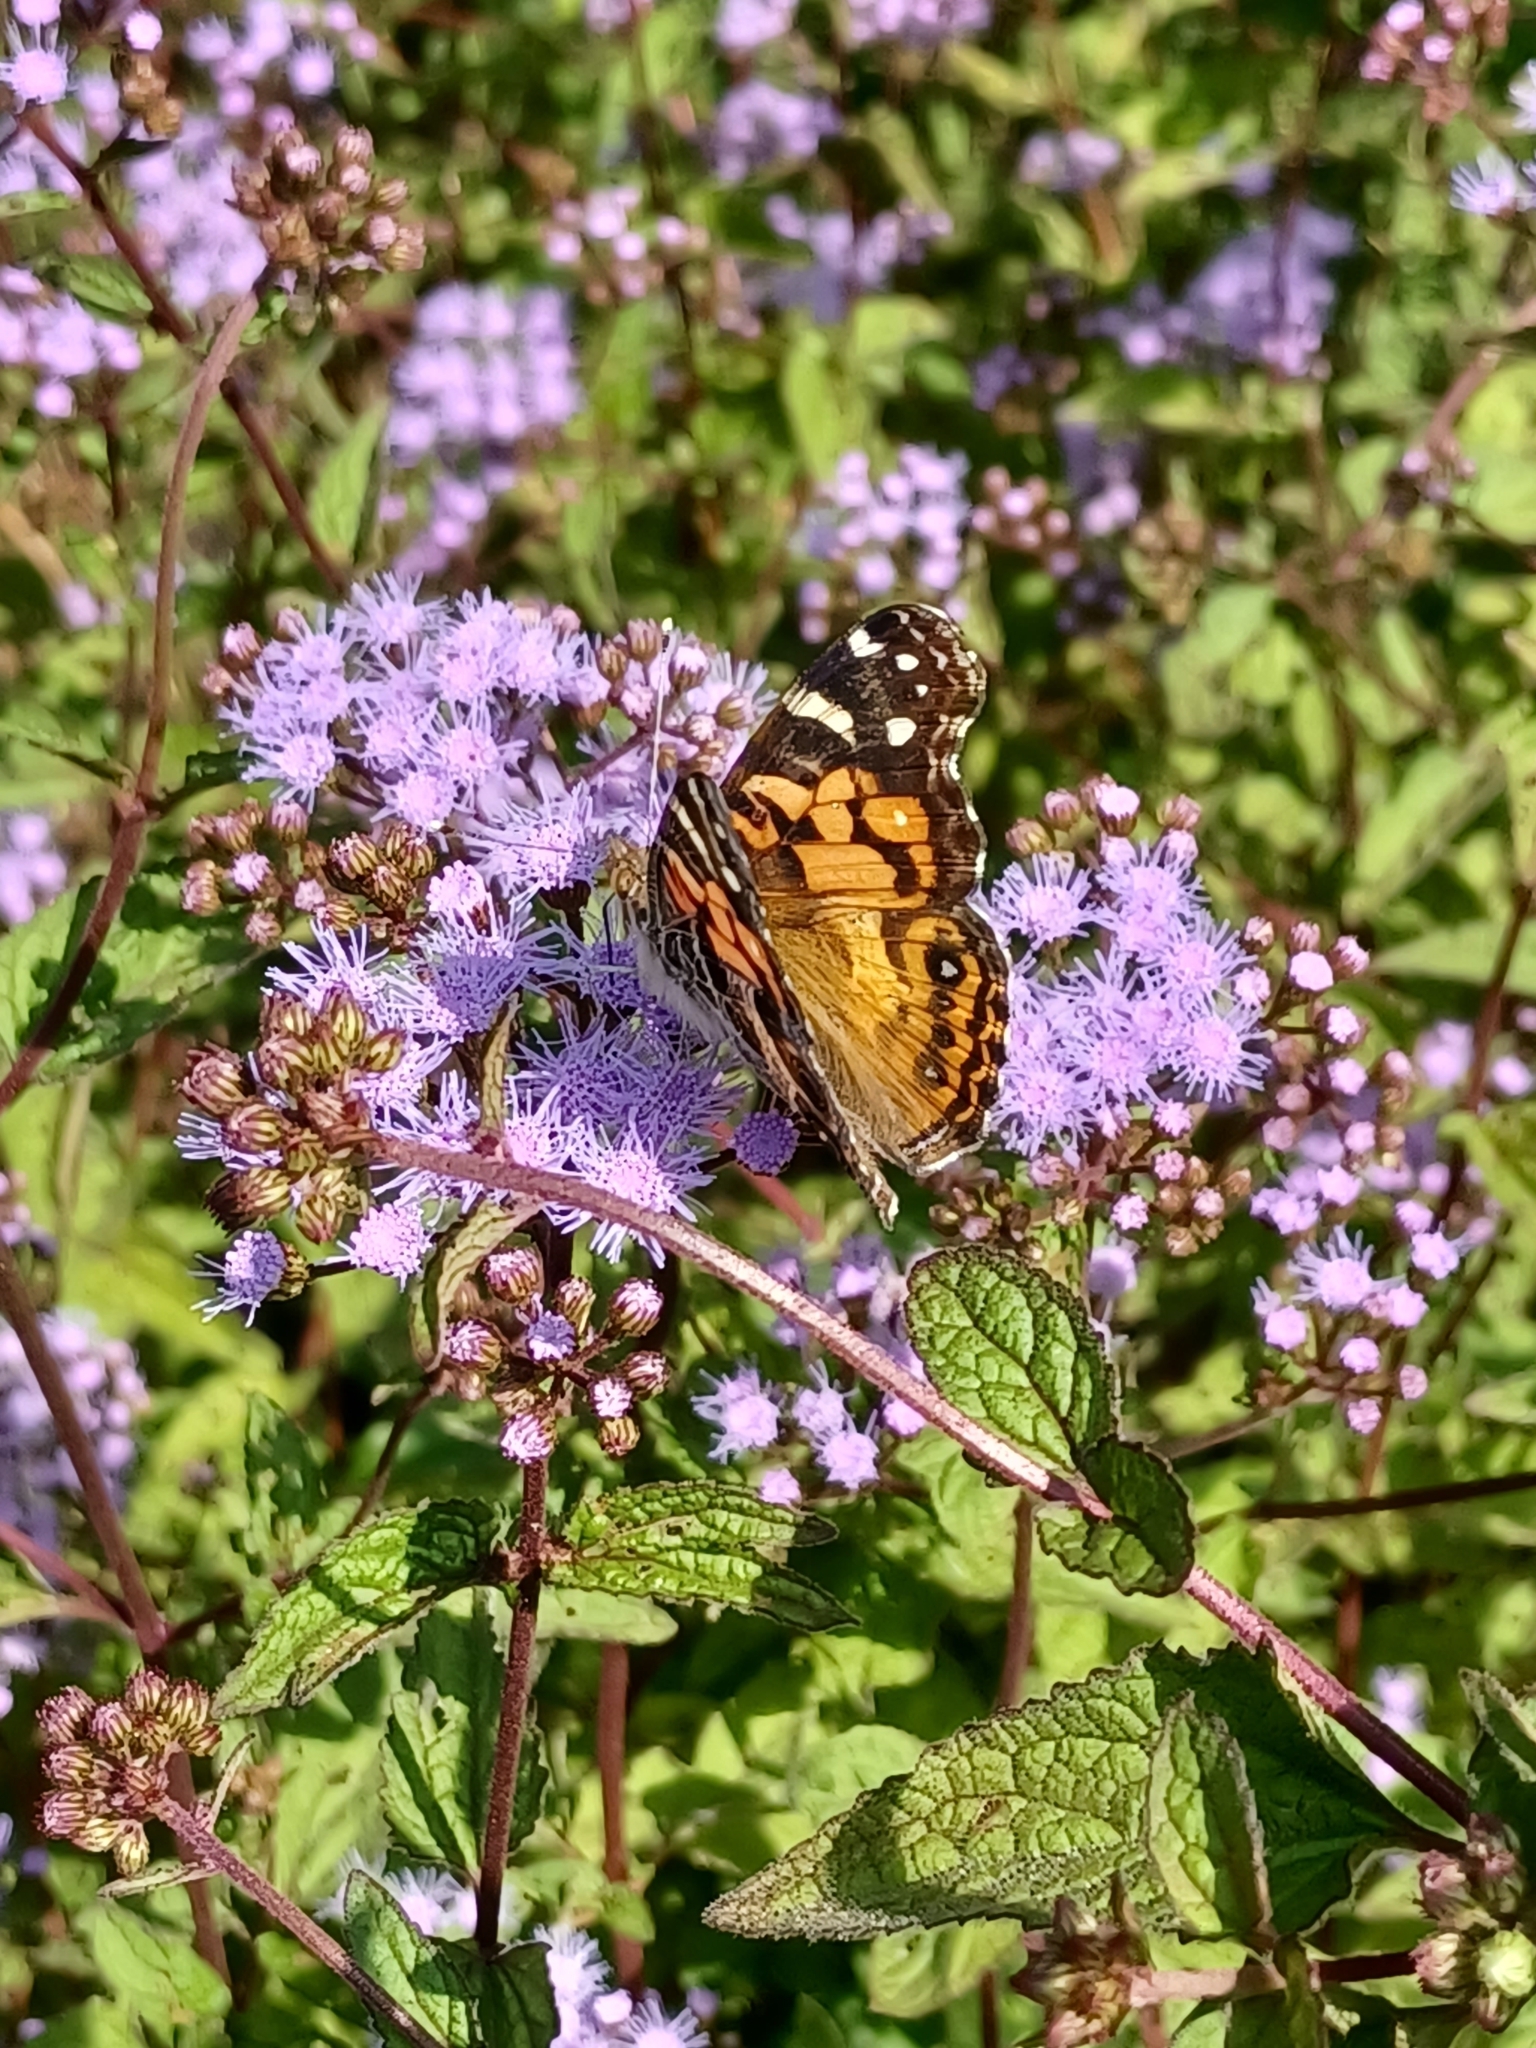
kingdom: Animalia
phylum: Arthropoda
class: Insecta
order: Lepidoptera
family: Nymphalidae
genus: Vanessa
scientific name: Vanessa virginiensis
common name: American lady
